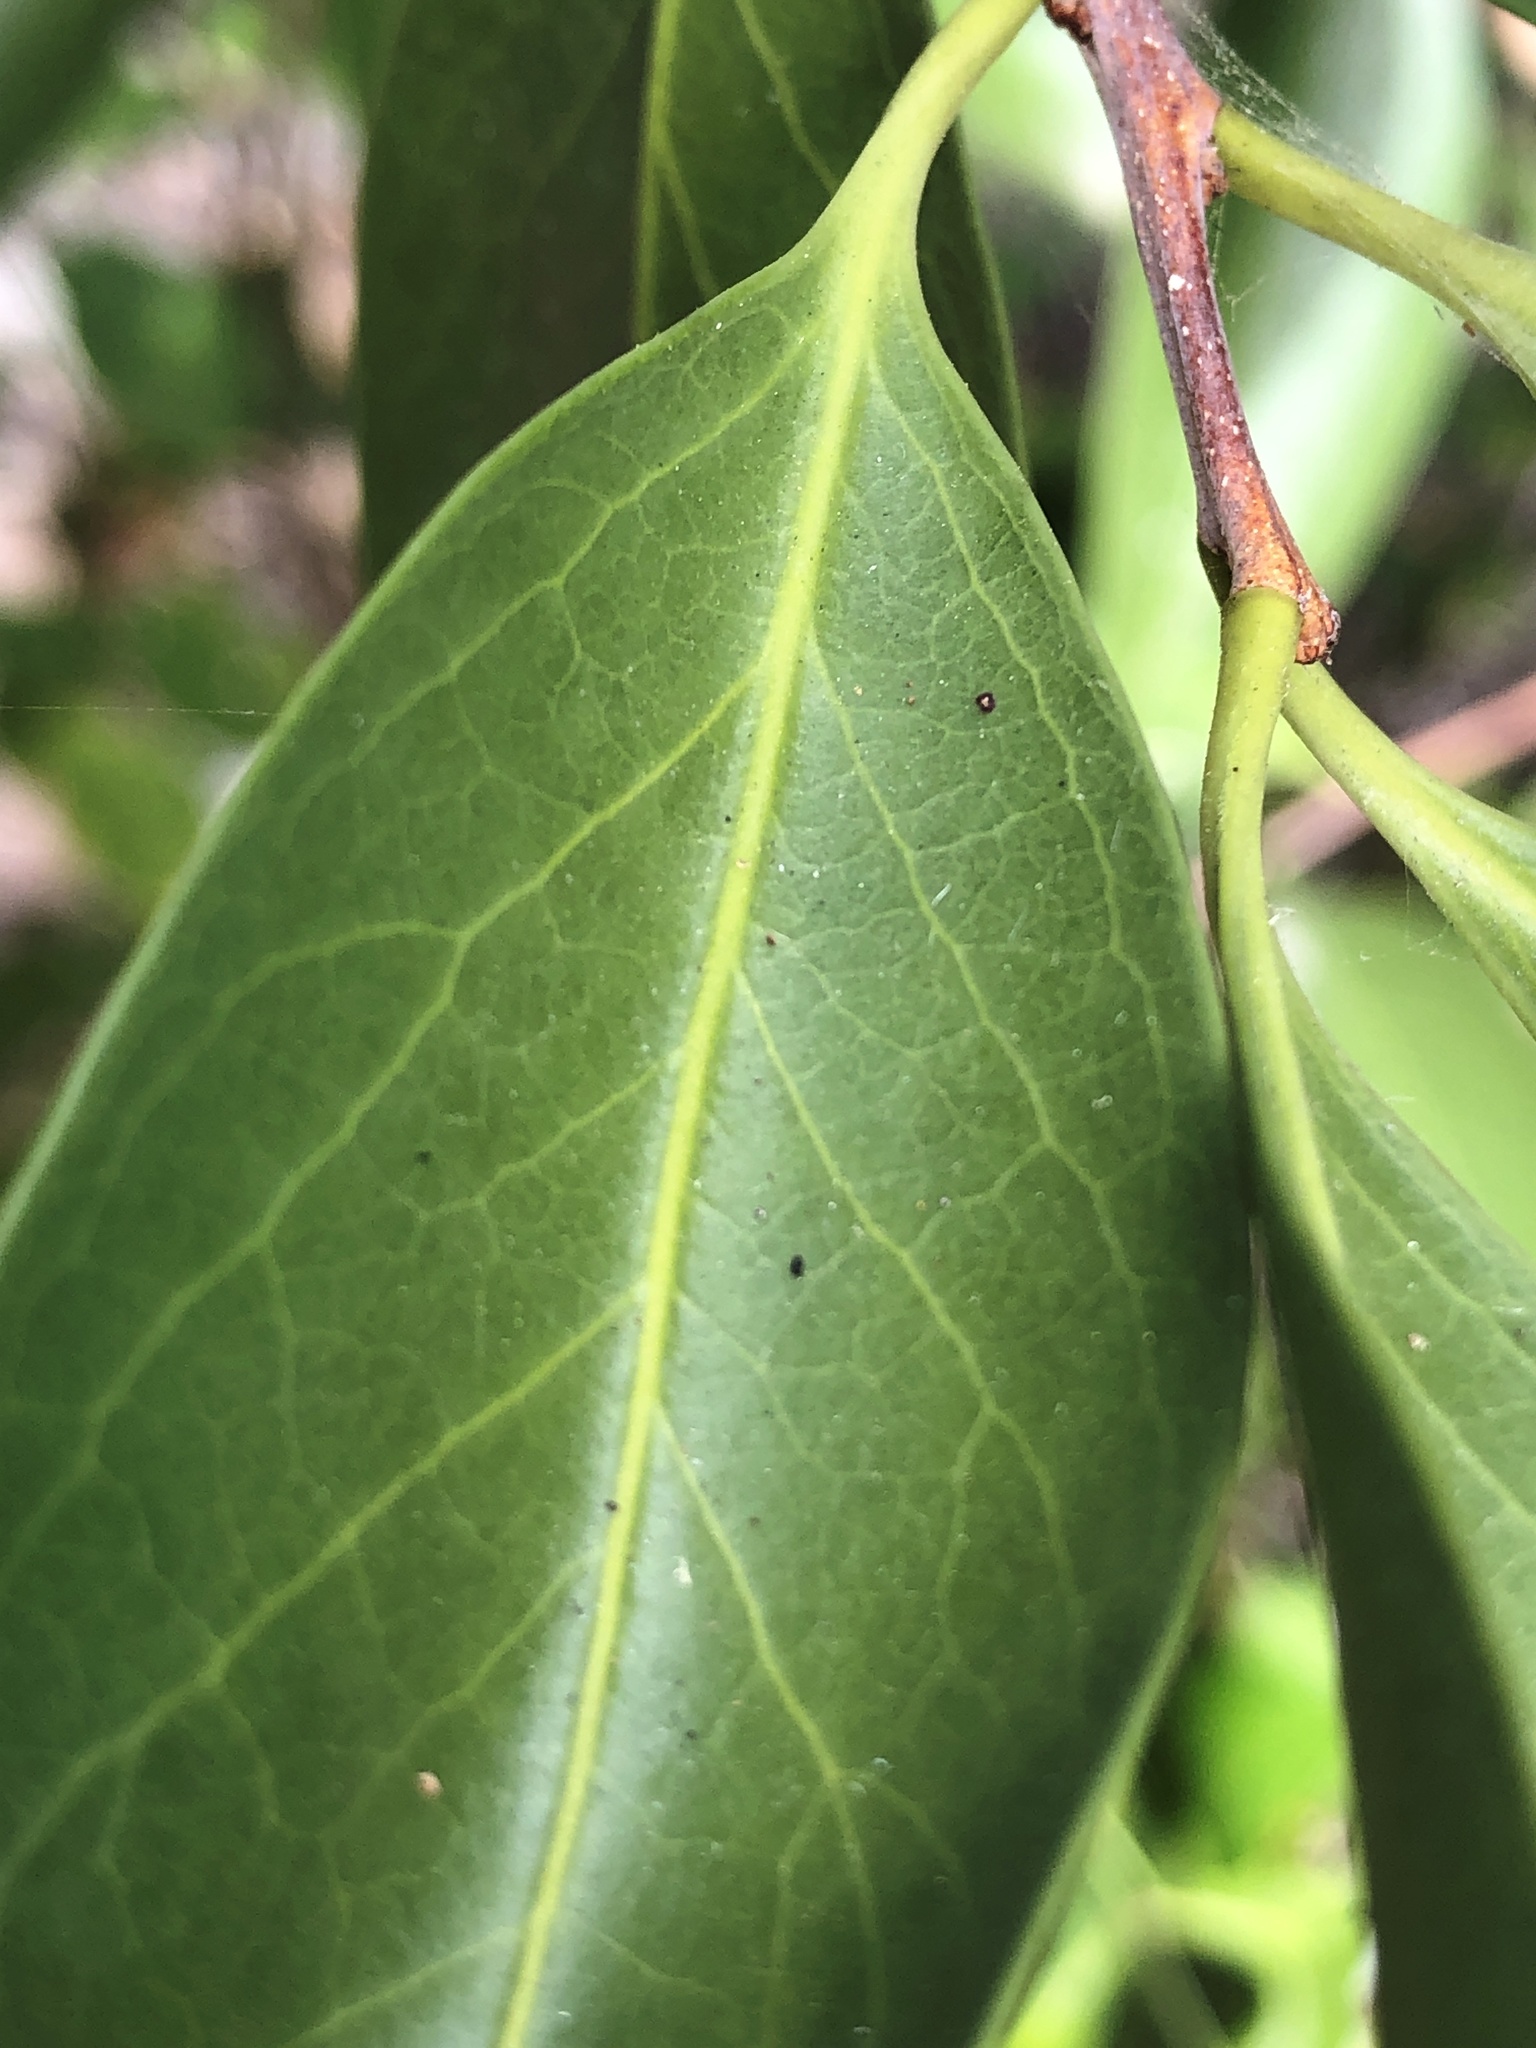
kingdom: Plantae
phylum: Tracheophyta
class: Magnoliopsida
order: Celastrales
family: Celastraceae
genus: Denhamia
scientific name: Denhamia disperma
